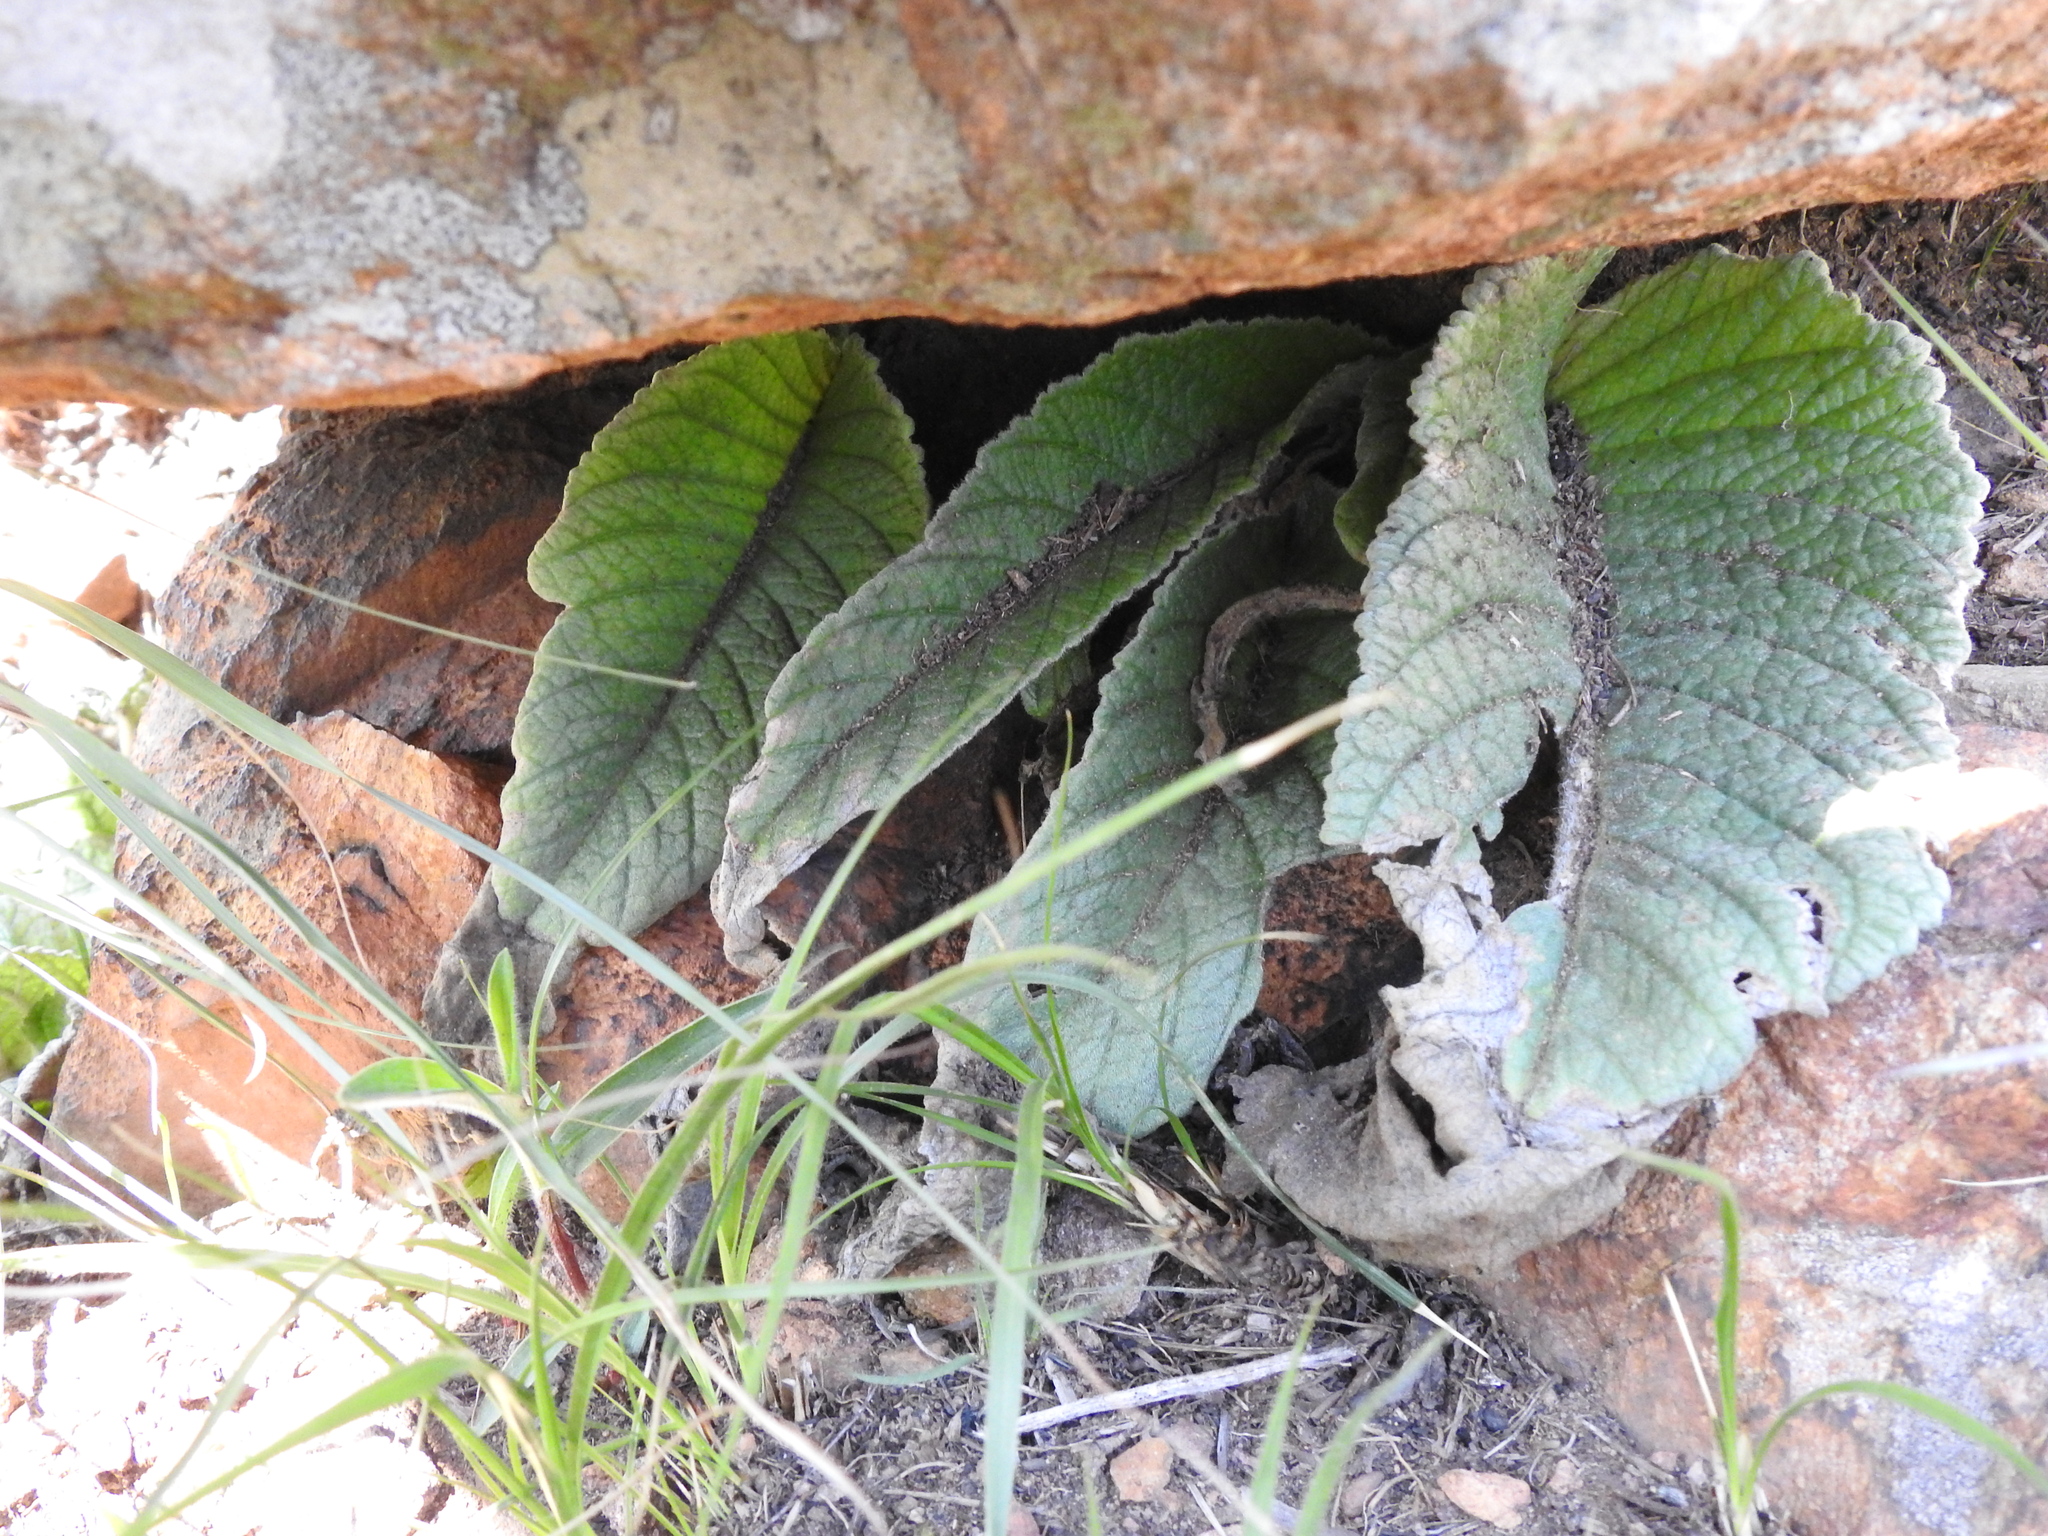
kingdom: Plantae
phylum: Tracheophyta
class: Magnoliopsida
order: Lamiales
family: Gesneriaceae
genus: Streptocarpus
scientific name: Streptocarpus dunnii
